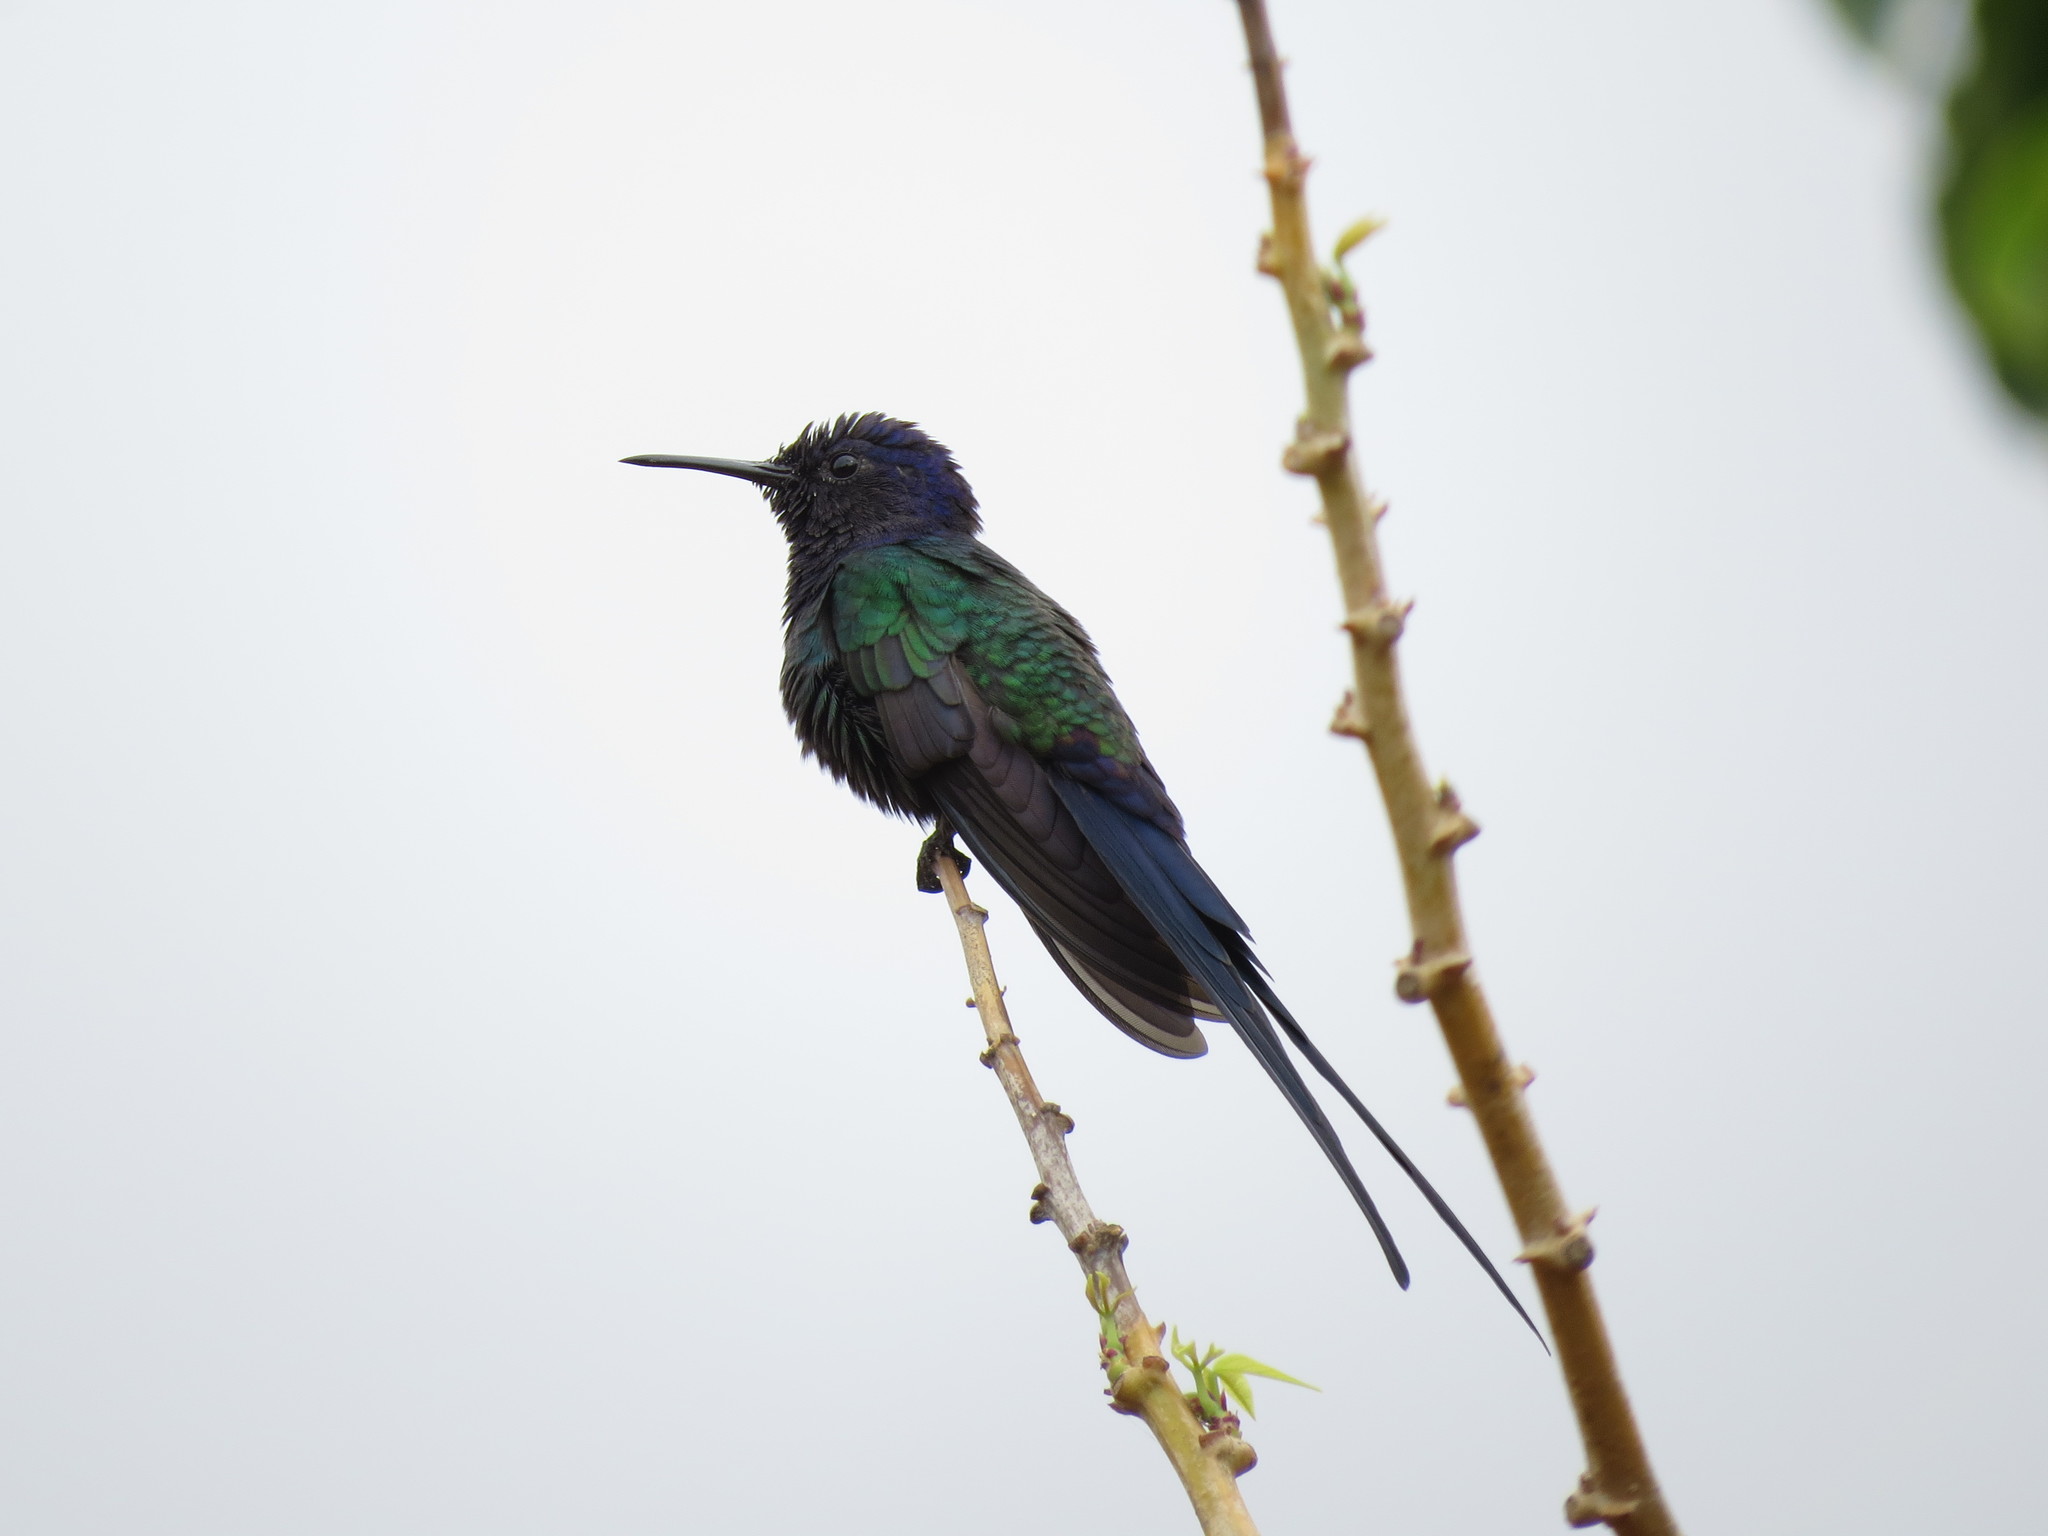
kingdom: Animalia
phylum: Chordata
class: Aves
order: Apodiformes
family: Trochilidae
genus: Eupetomena
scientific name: Eupetomena macroura
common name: Swallow-tailed hummingbird
